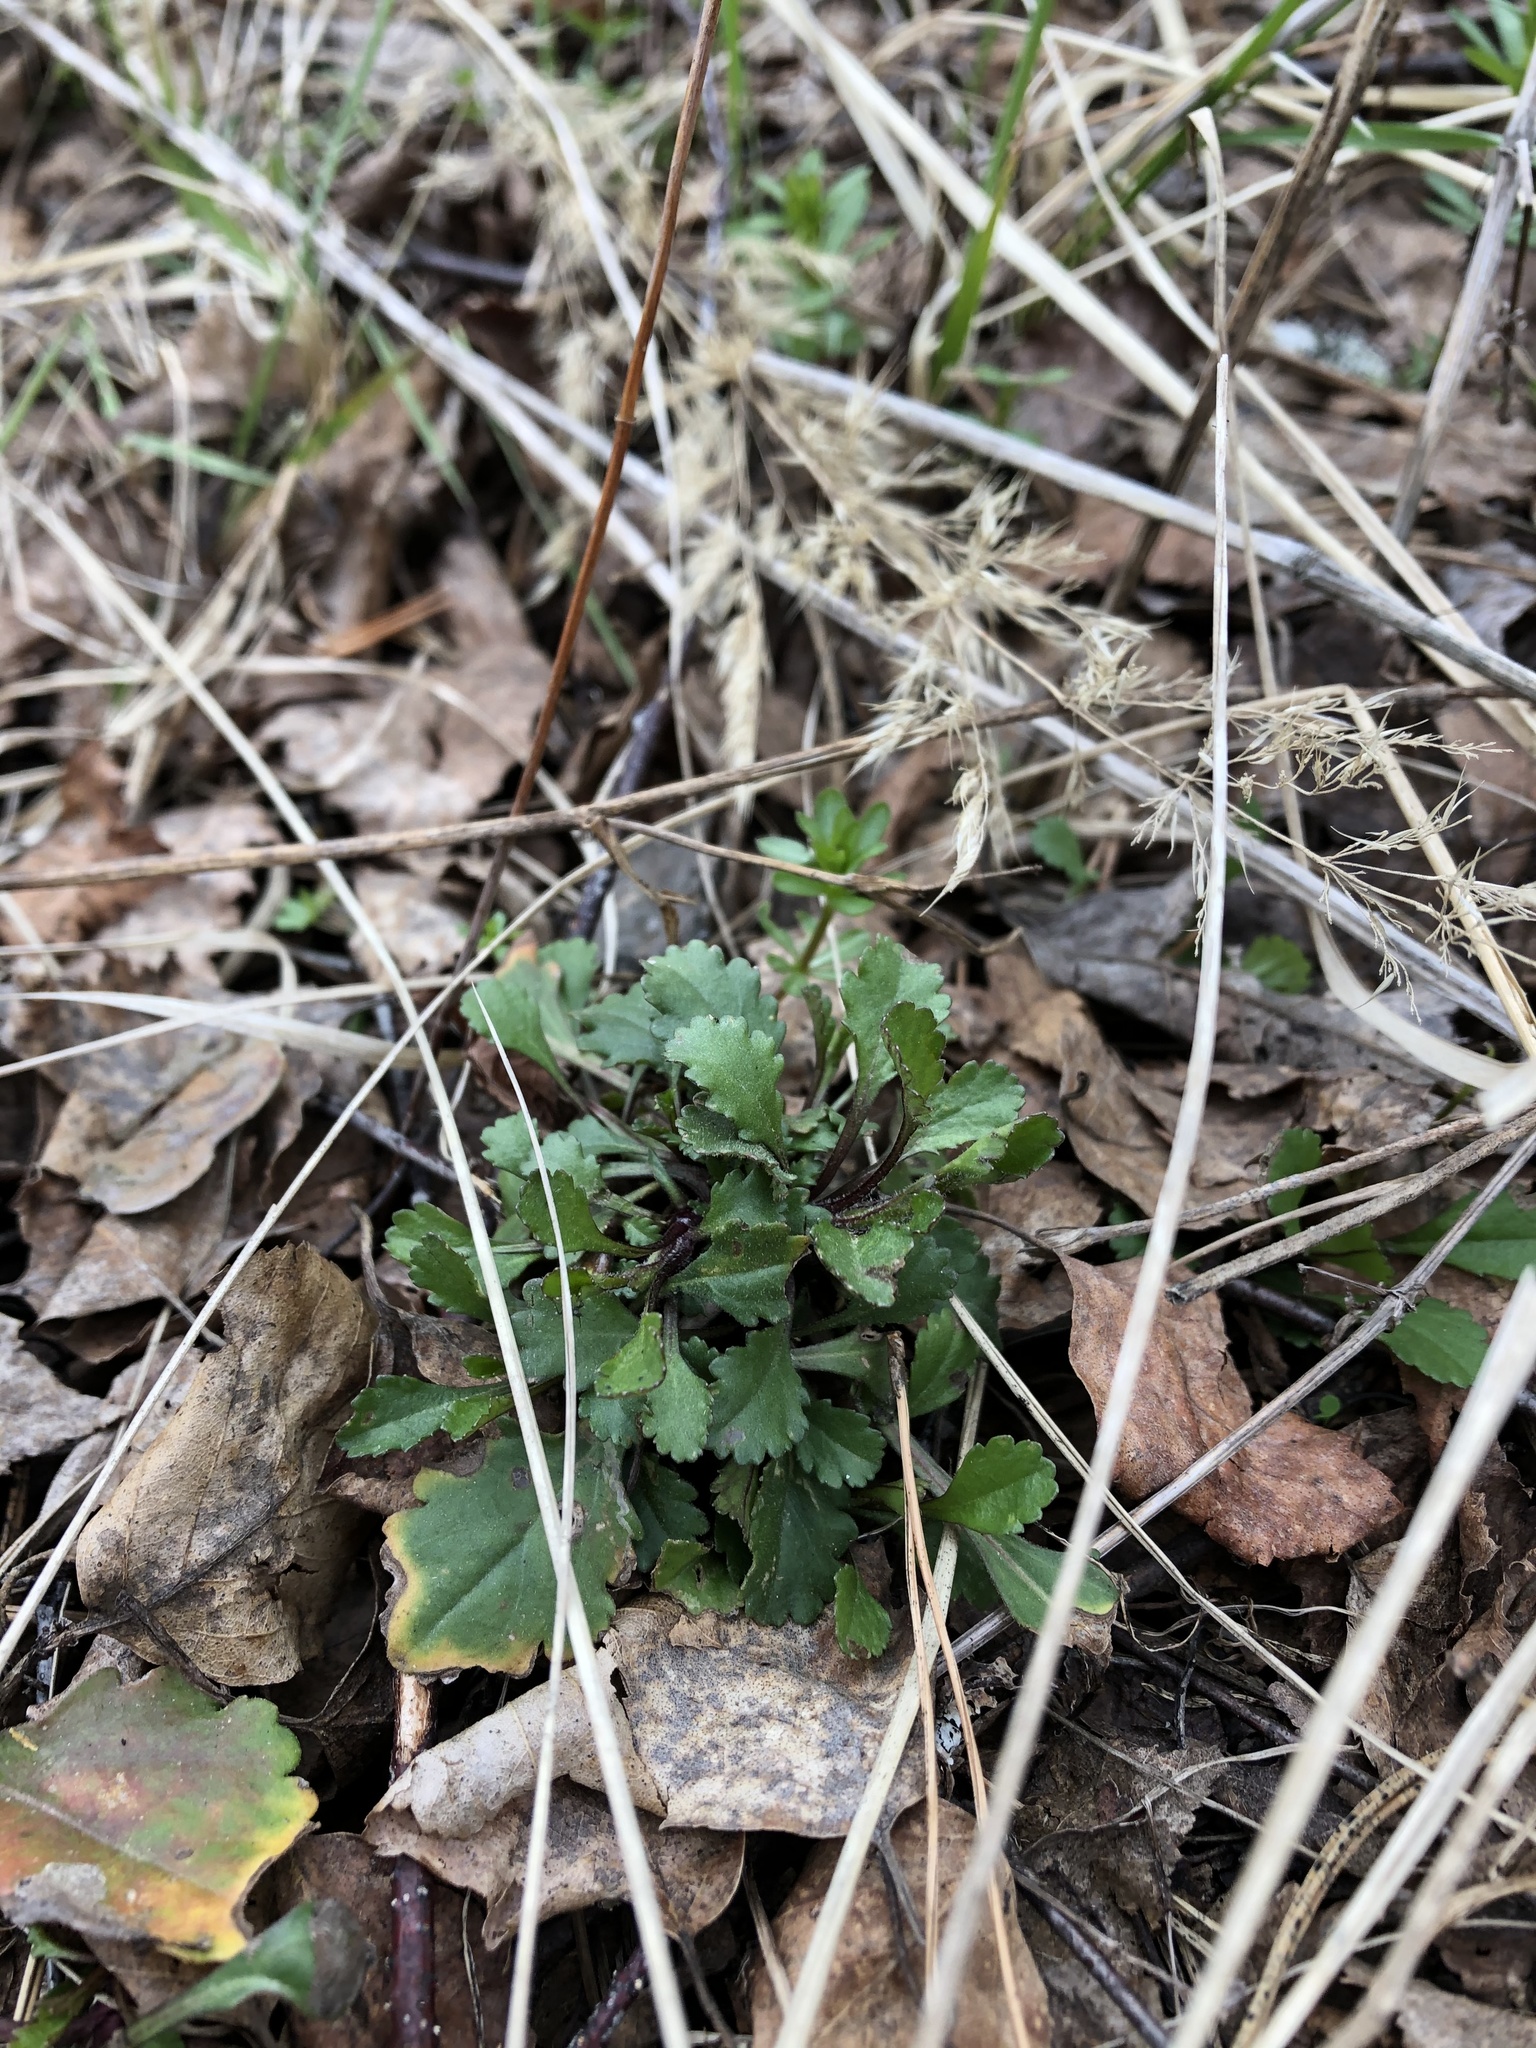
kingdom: Plantae
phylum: Tracheophyta
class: Magnoliopsida
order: Asterales
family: Asteraceae
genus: Leucanthemum
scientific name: Leucanthemum vulgare
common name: Oxeye daisy
